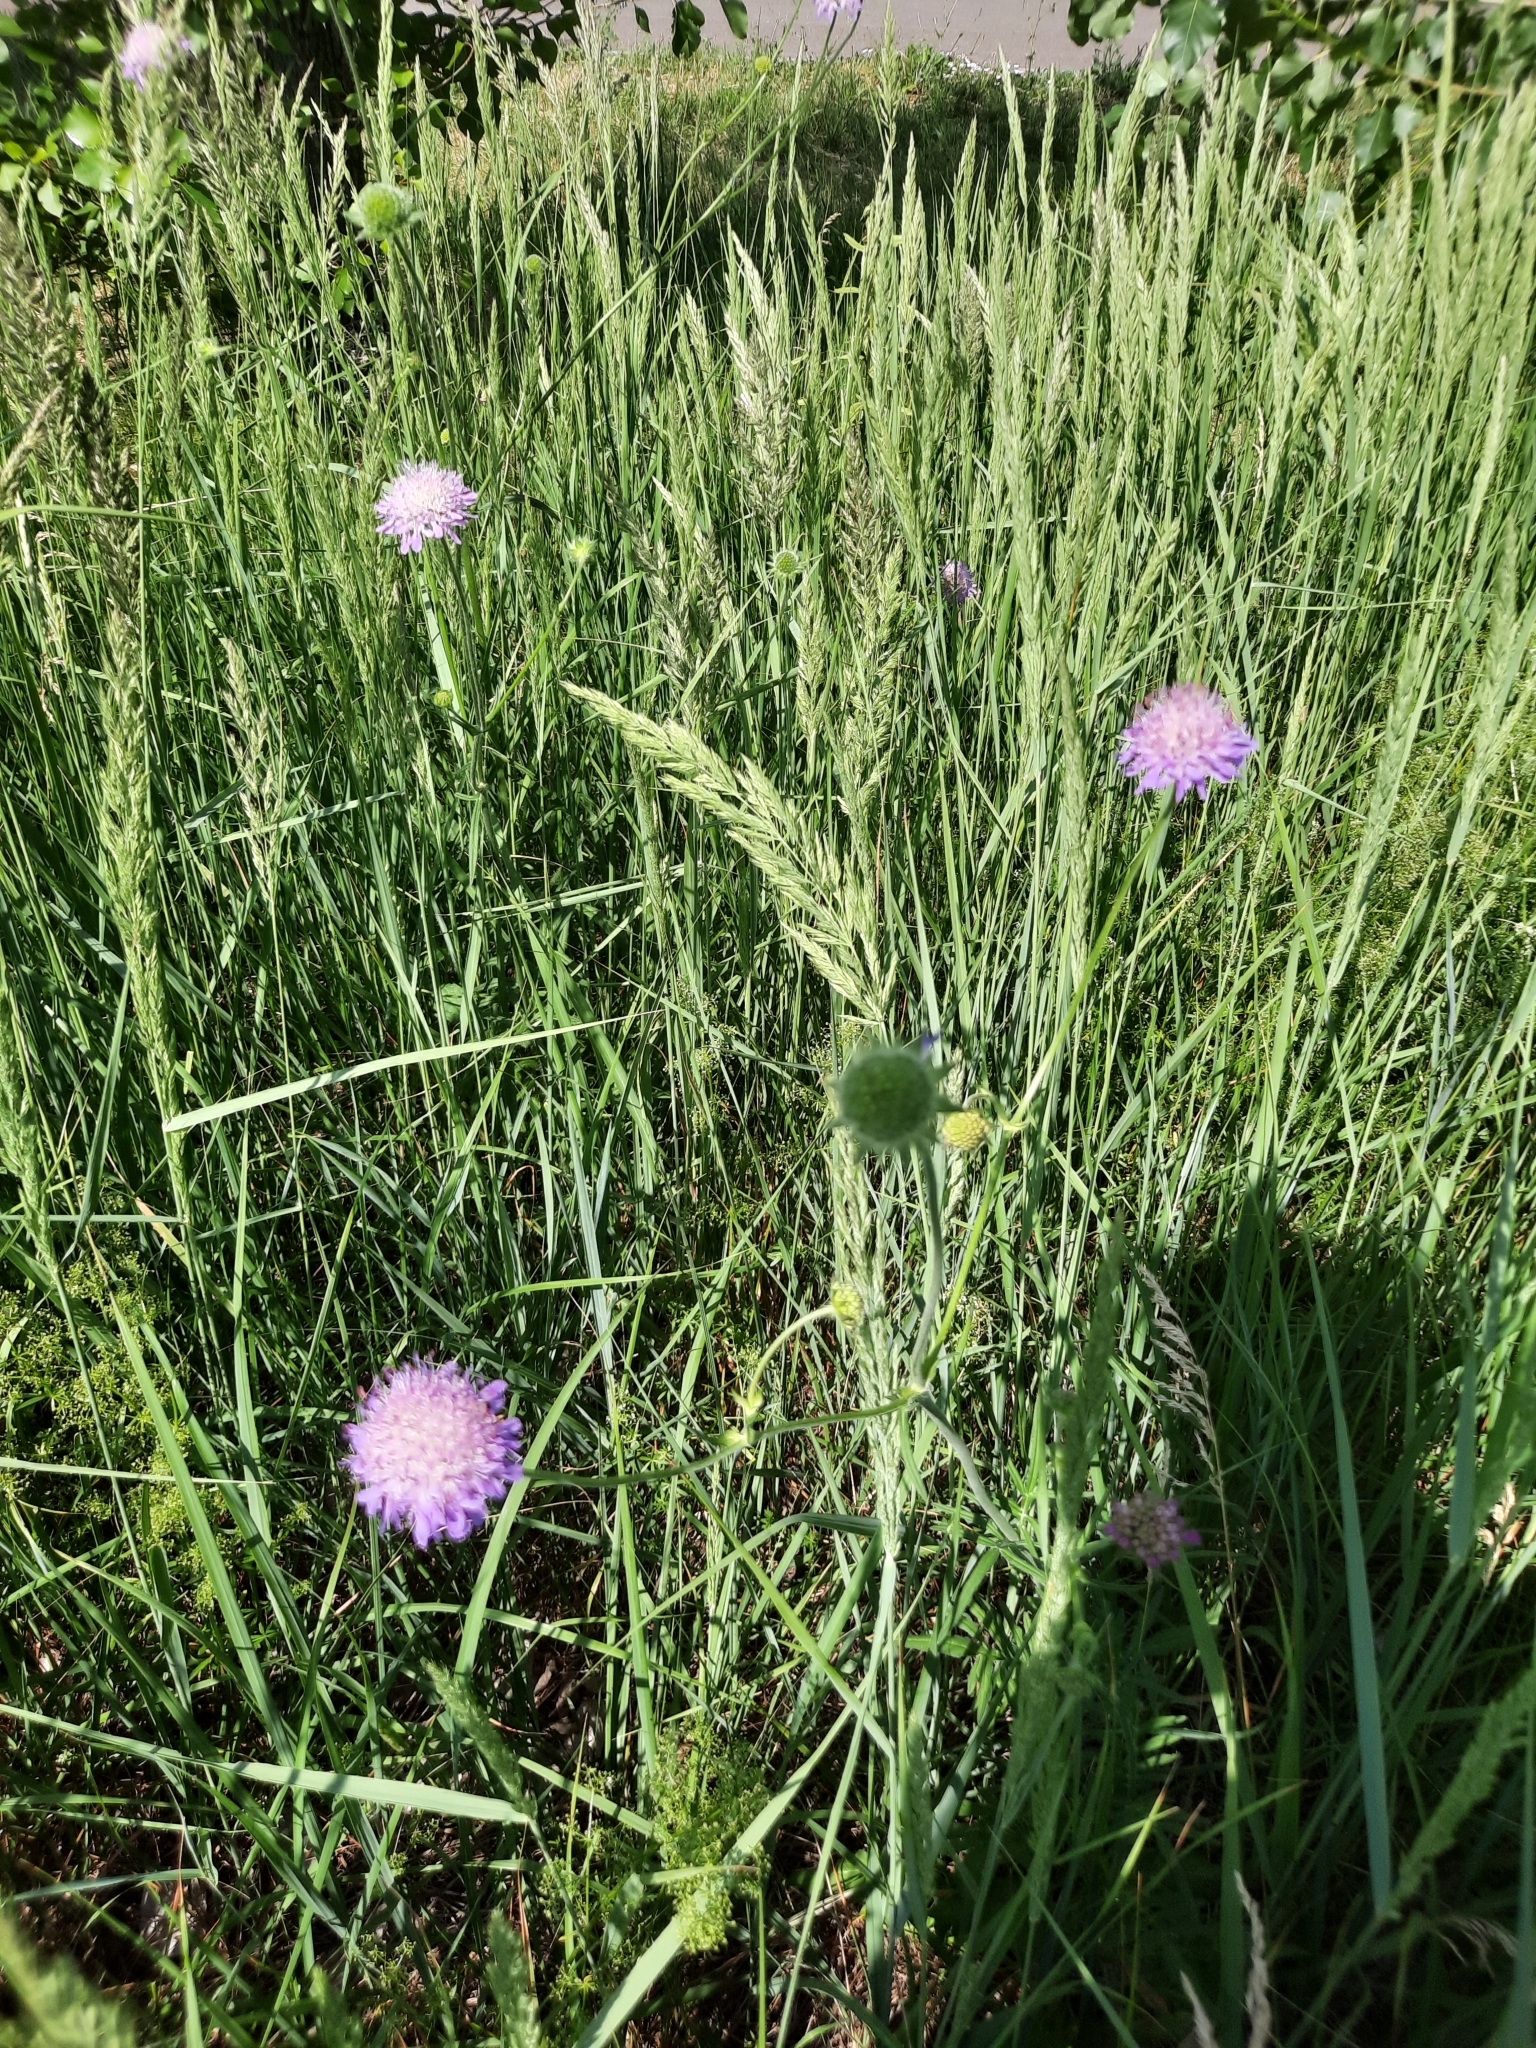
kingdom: Plantae
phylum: Tracheophyta
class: Magnoliopsida
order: Dipsacales
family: Caprifoliaceae
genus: Knautia
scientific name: Knautia arvensis
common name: Field scabiosa
